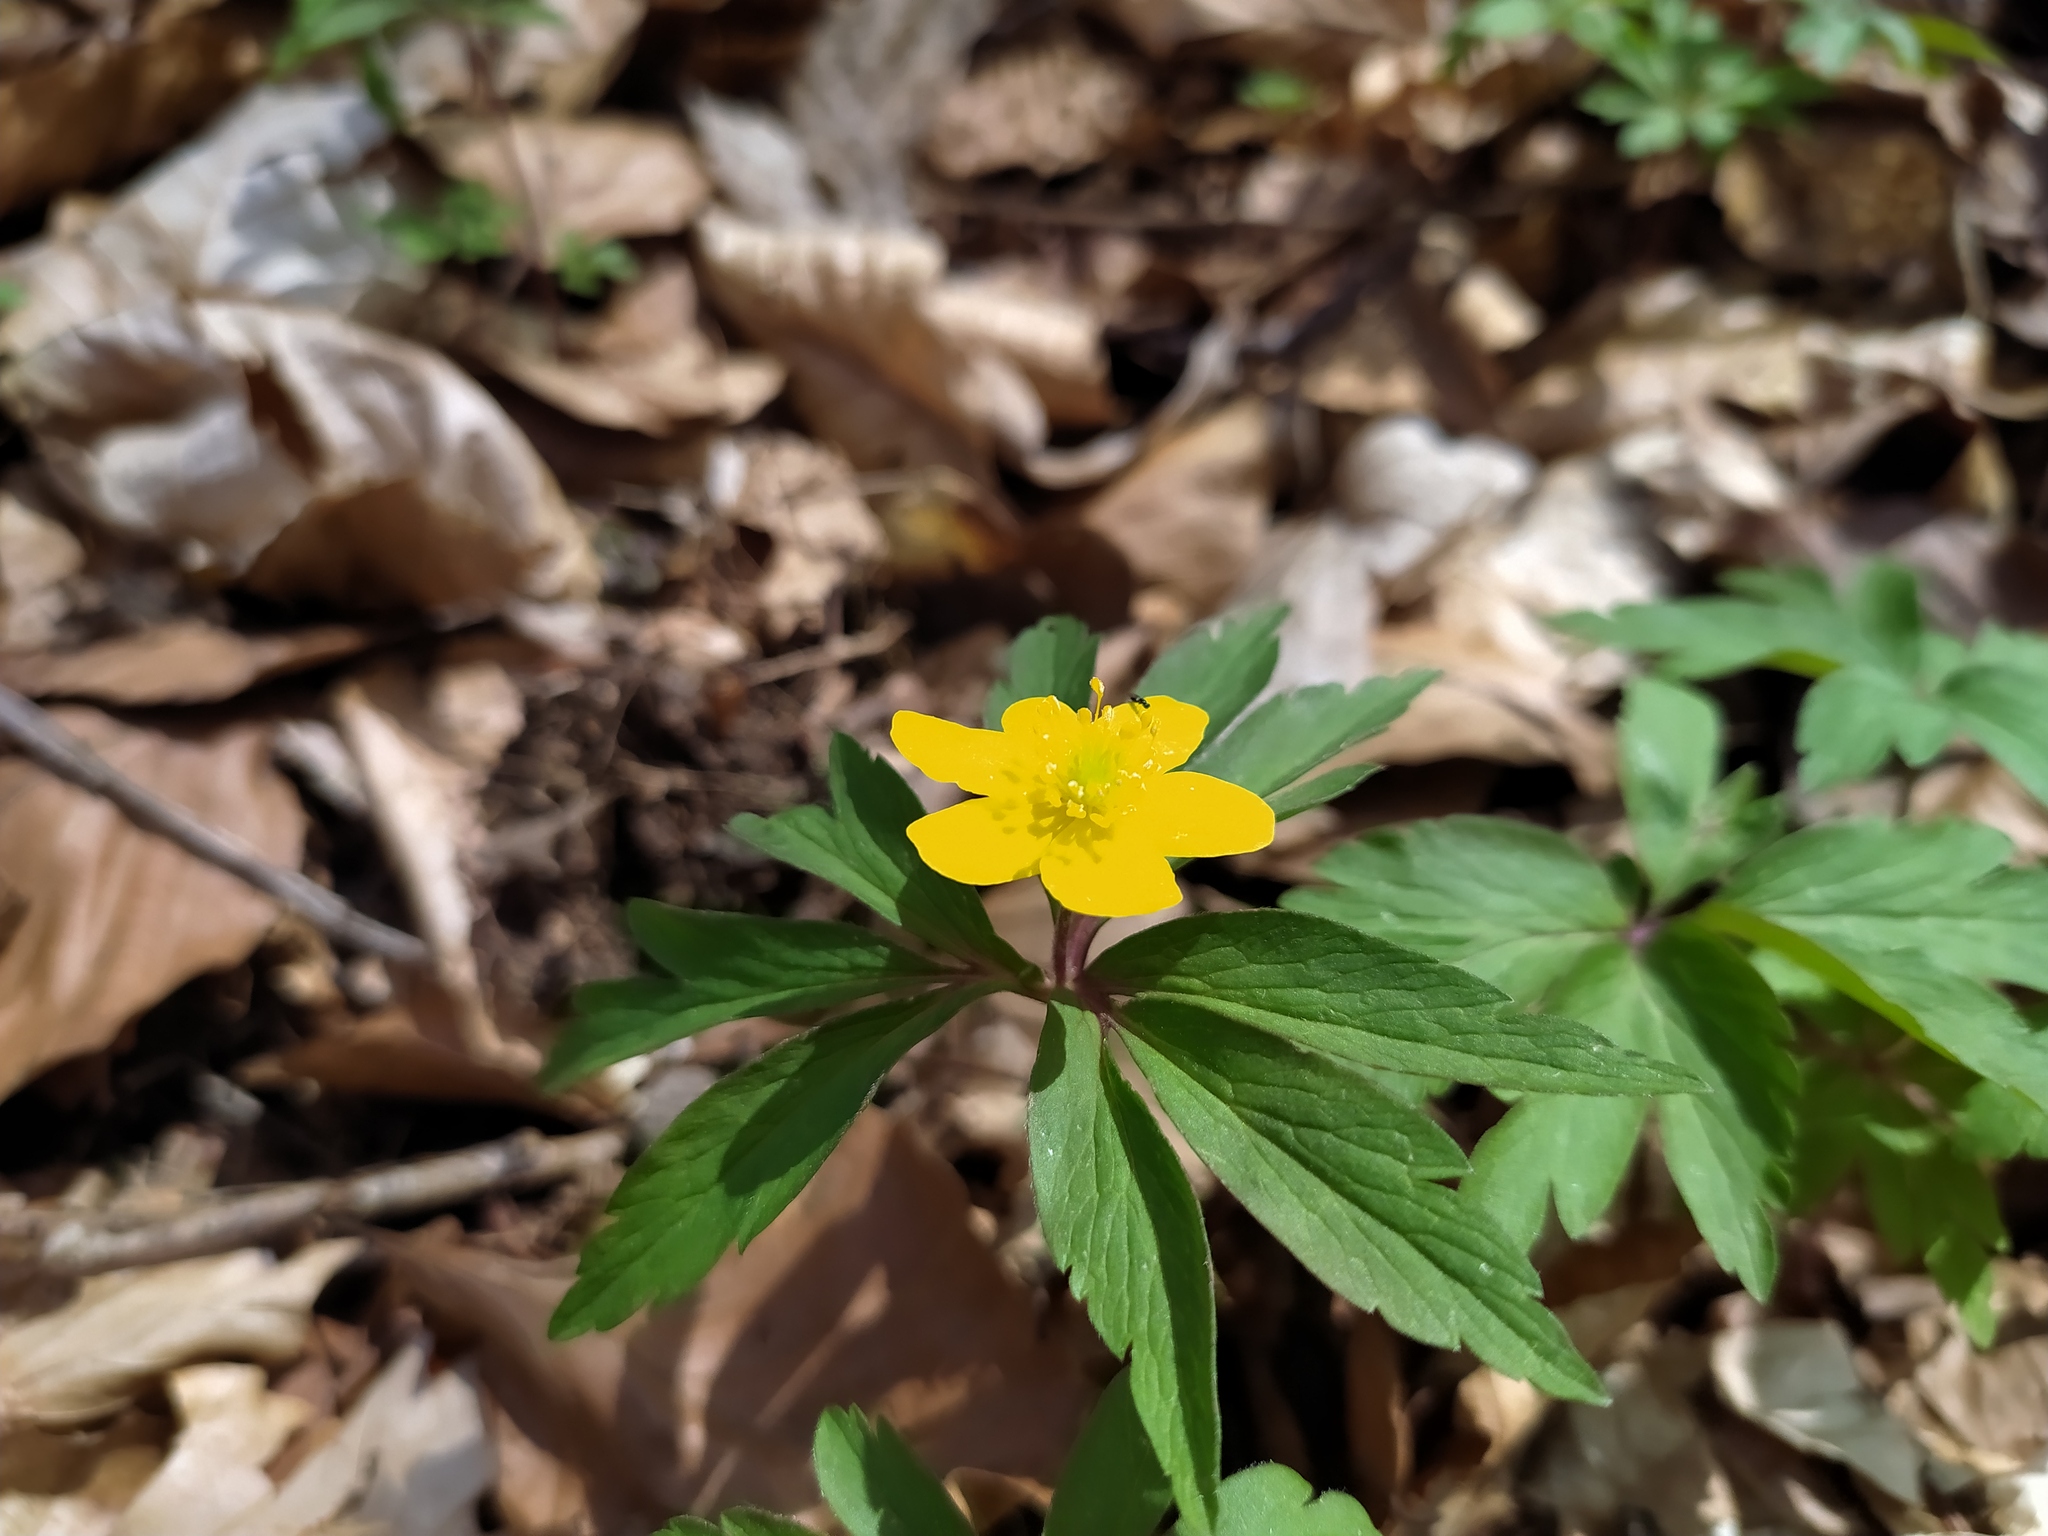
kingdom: Plantae
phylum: Tracheophyta
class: Magnoliopsida
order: Ranunculales
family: Ranunculaceae
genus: Anemone
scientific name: Anemone ranunculoides
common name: Yellow anemone
